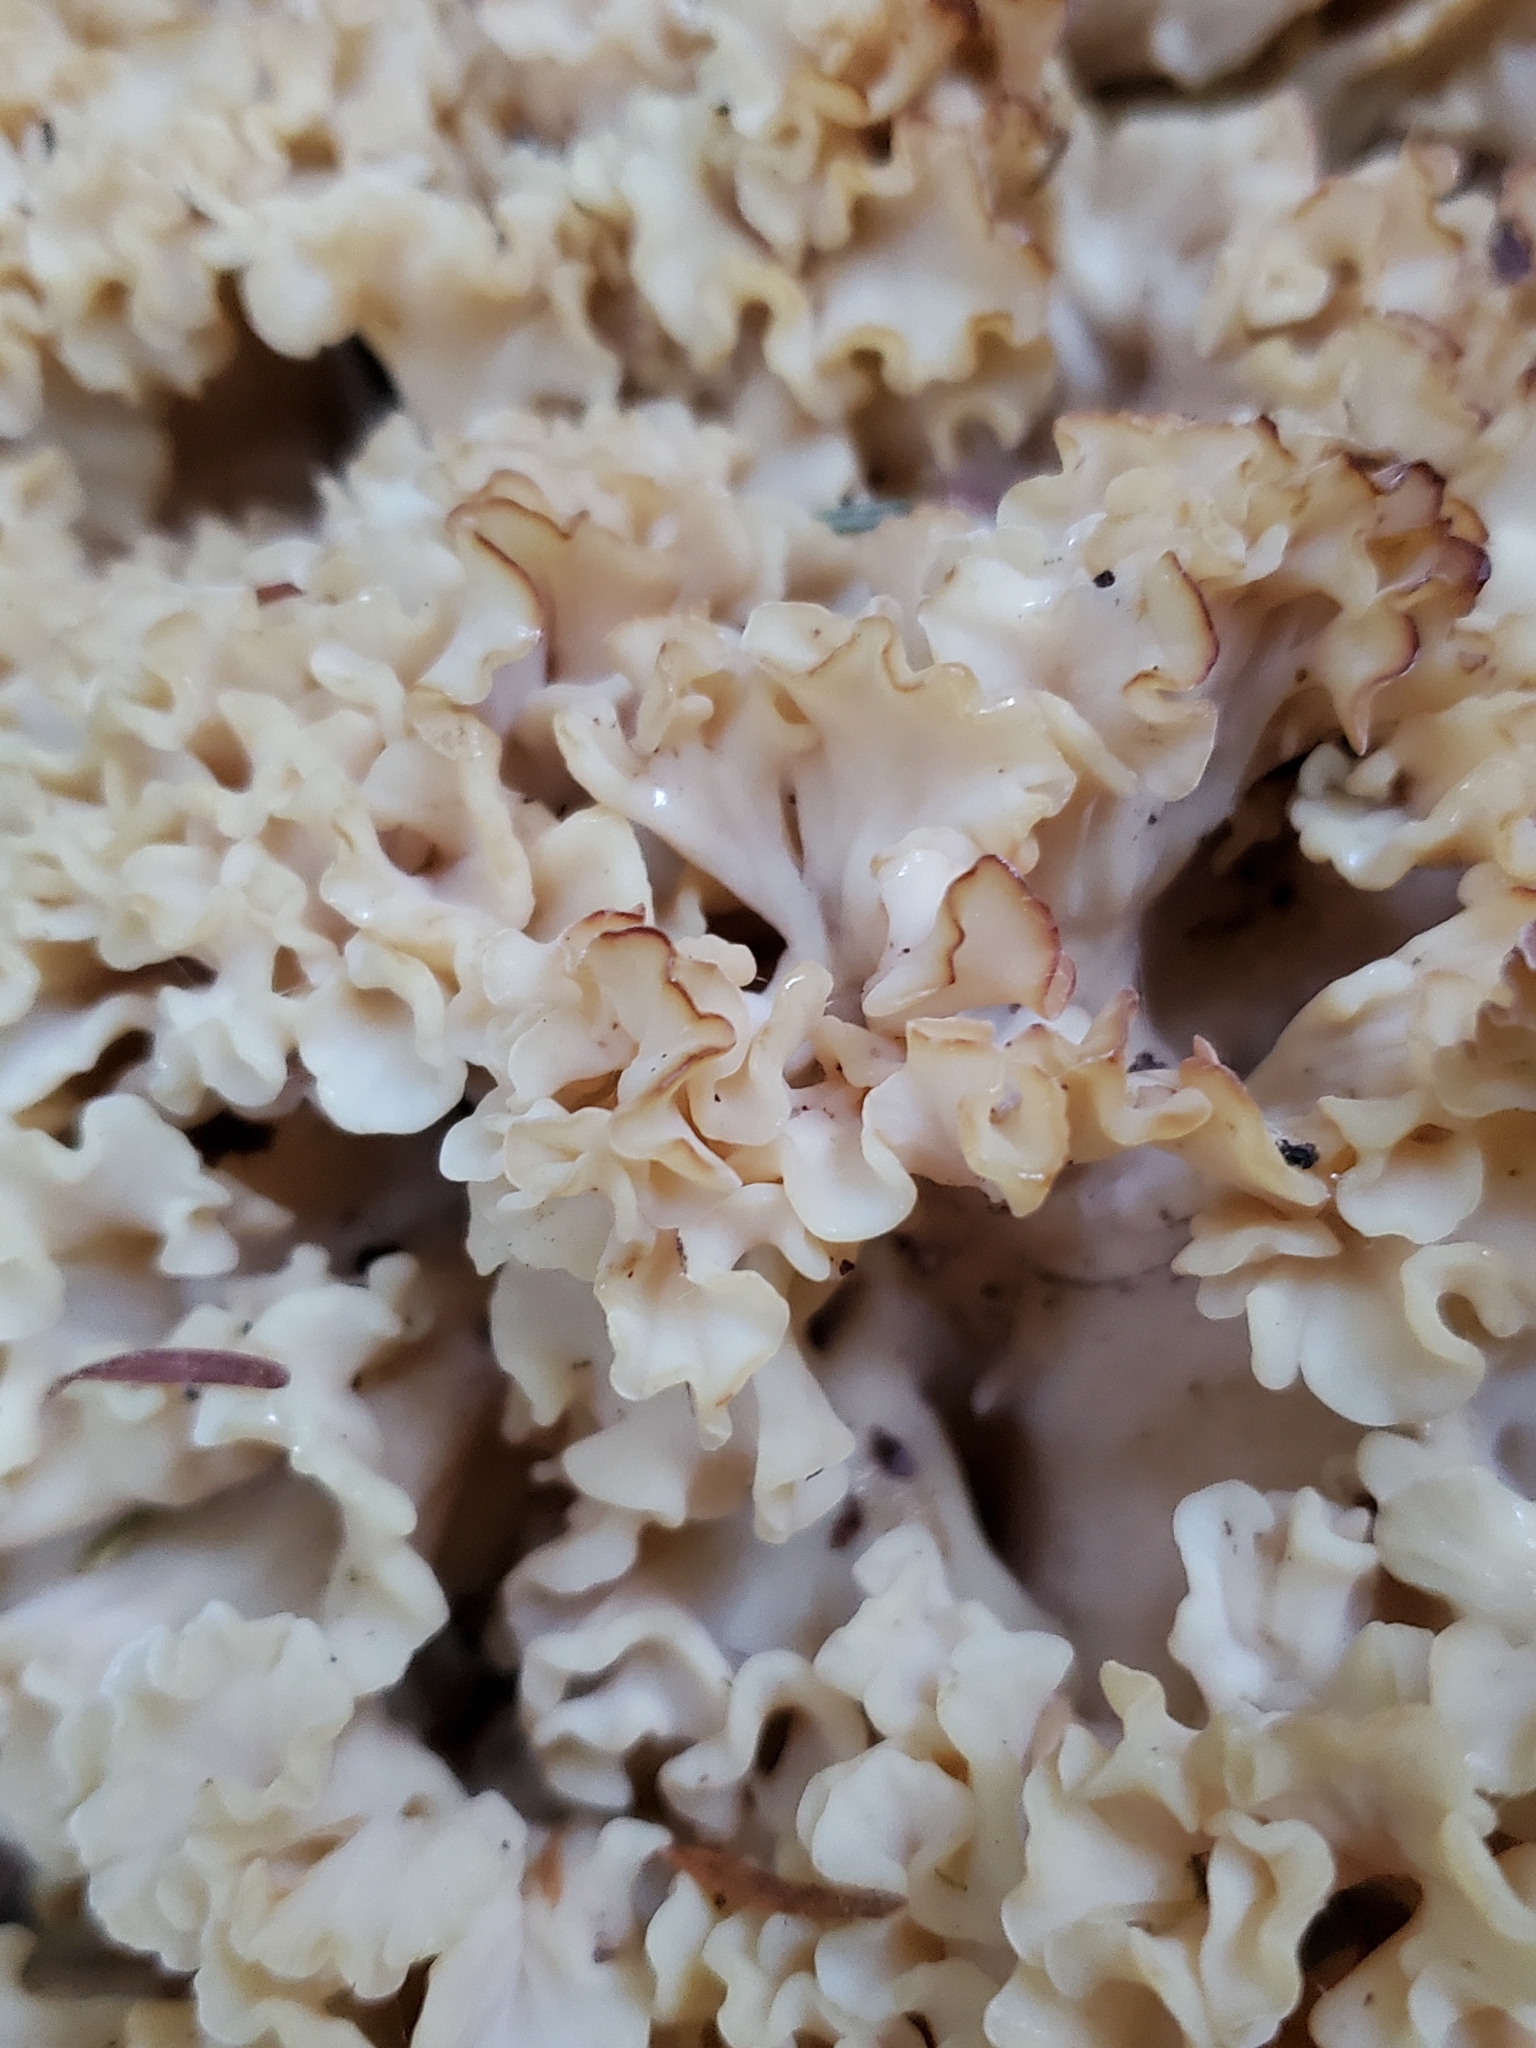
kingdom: Fungi
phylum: Basidiomycota
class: Agaricomycetes
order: Polyporales
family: Sparassidaceae
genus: Sparassis
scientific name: Sparassis radicata
